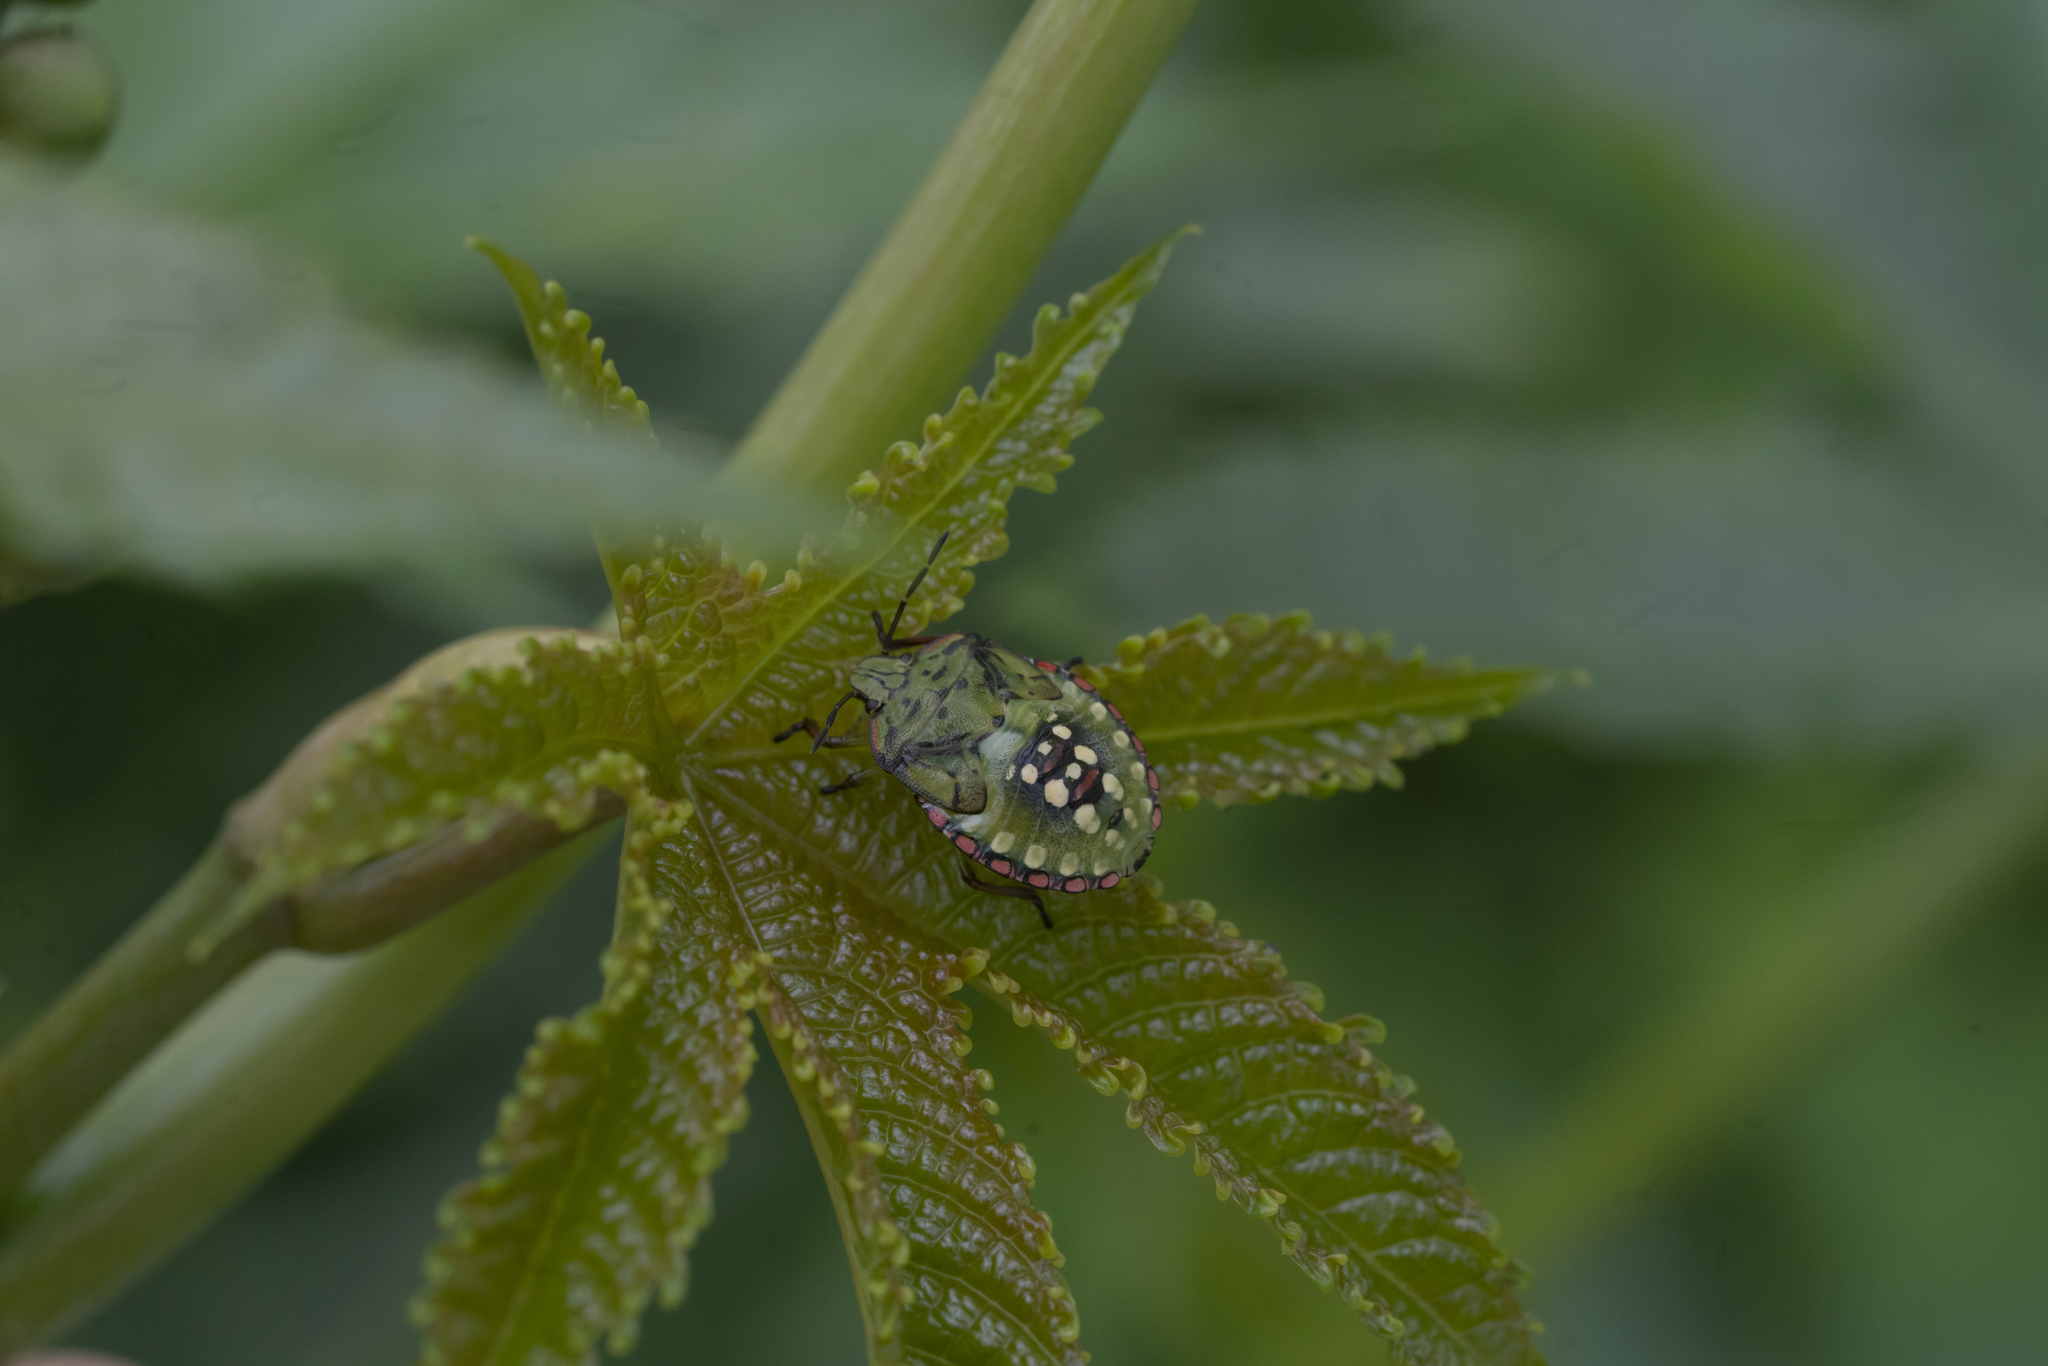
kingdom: Animalia
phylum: Arthropoda
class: Insecta
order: Hemiptera
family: Pentatomidae
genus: Nezara
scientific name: Nezara viridula
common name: Southern green stink bug
